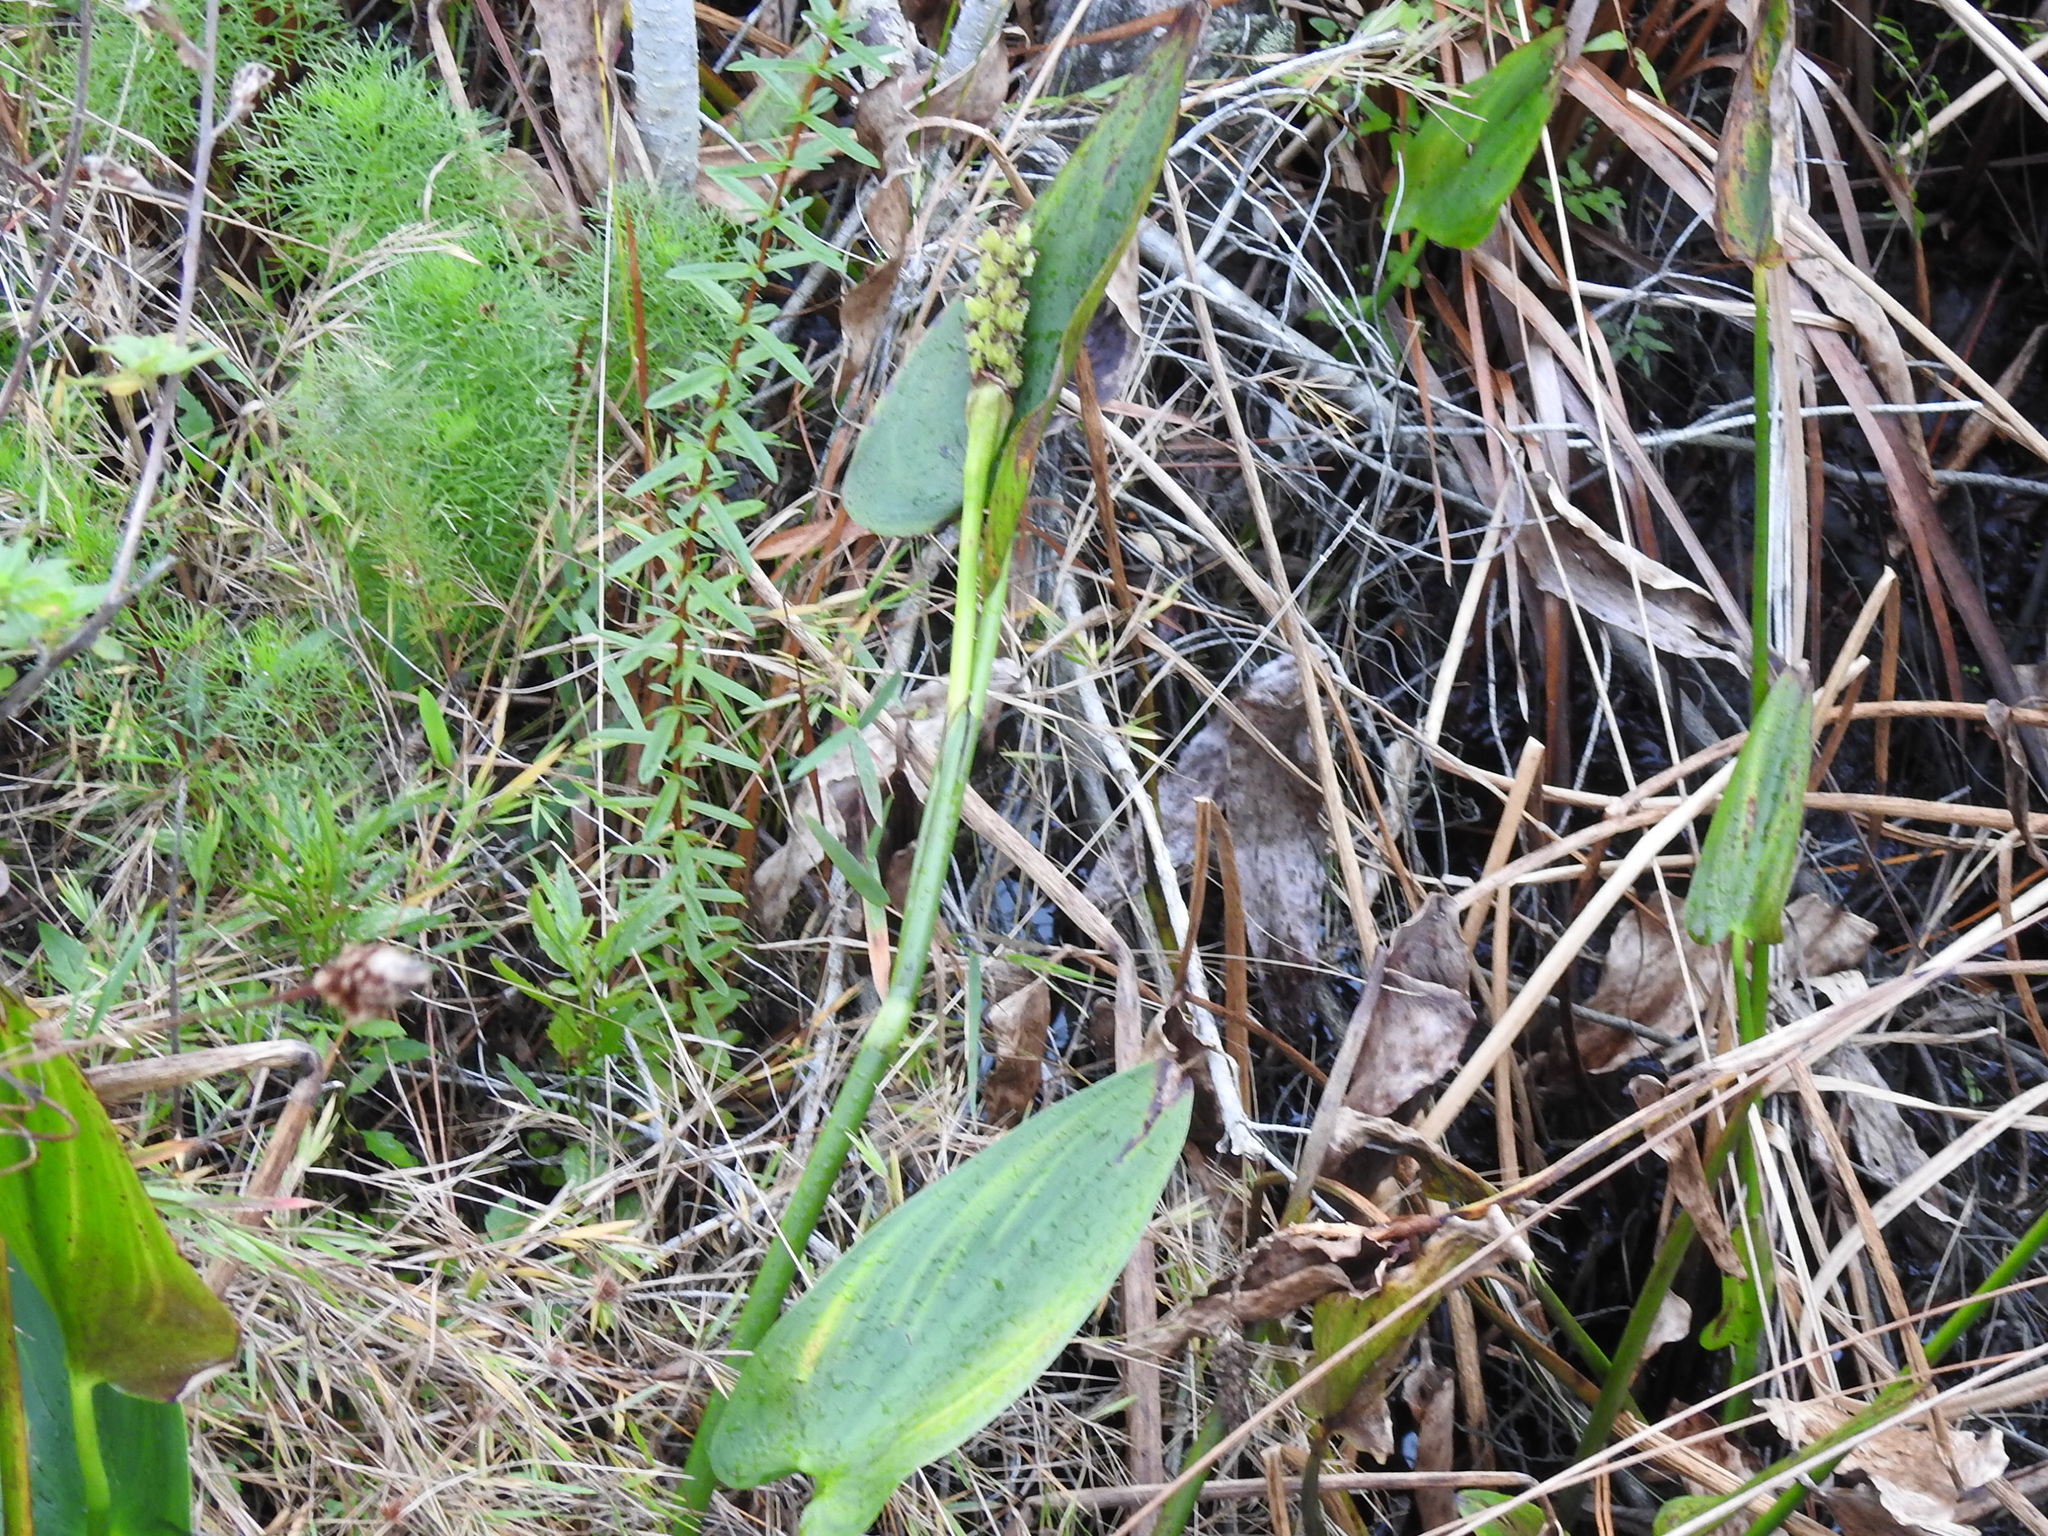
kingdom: Plantae
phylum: Tracheophyta
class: Liliopsida
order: Commelinales
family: Pontederiaceae
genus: Pontederia
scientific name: Pontederia cordata
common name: Pickerelweed
